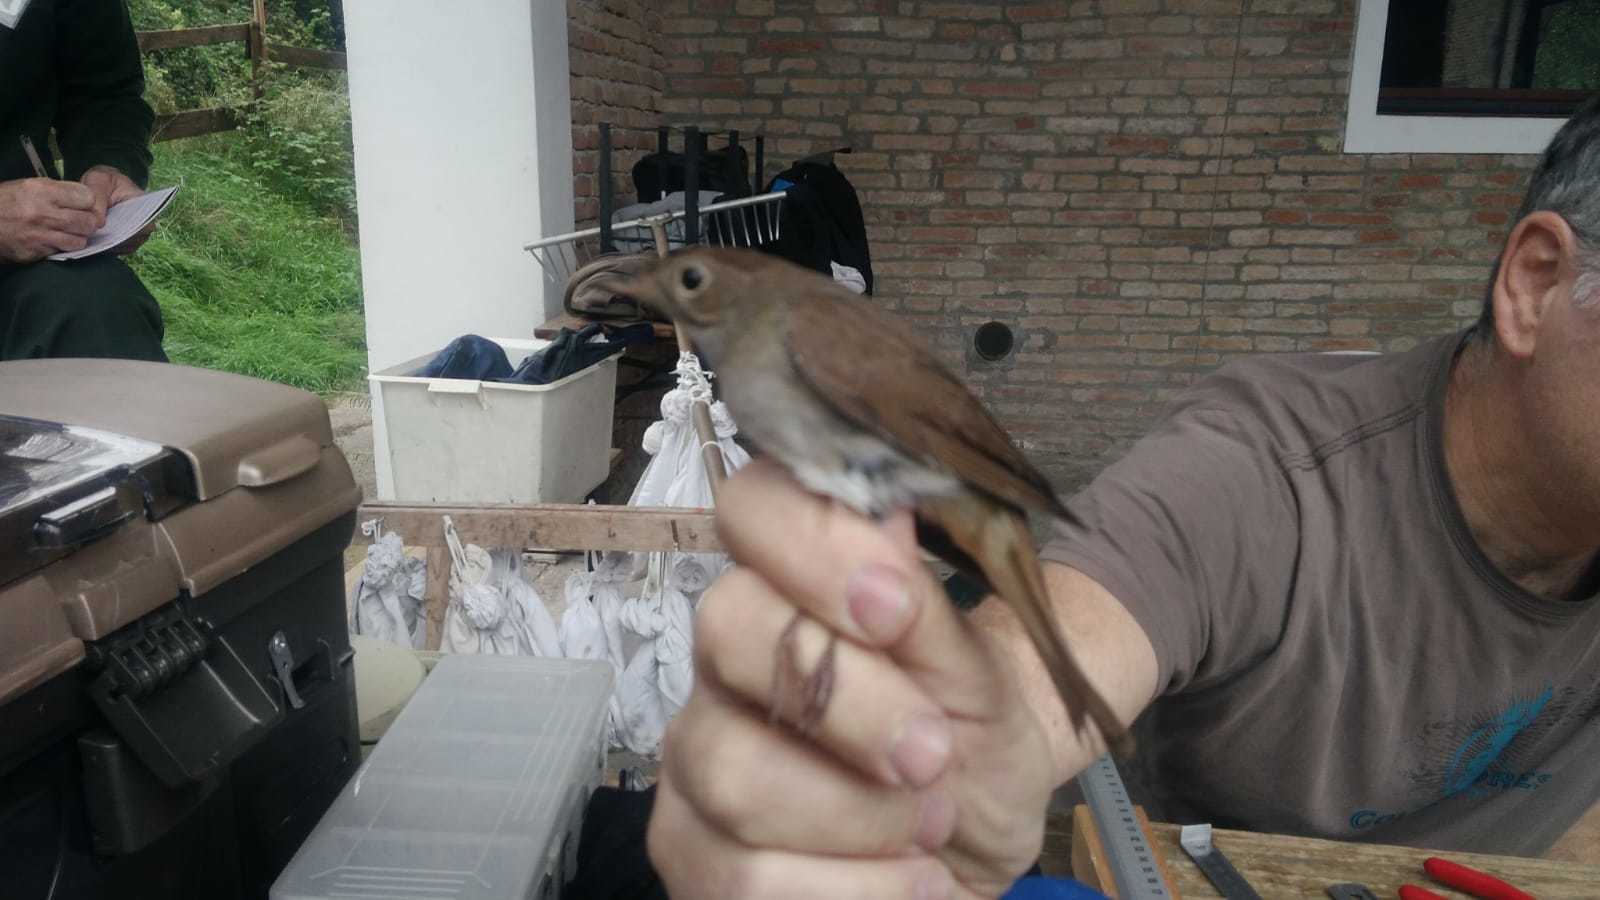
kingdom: Animalia
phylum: Chordata
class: Aves
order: Passeriformes
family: Muscicapidae
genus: Luscinia
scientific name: Luscinia megarhynchos
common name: Common nightingale
